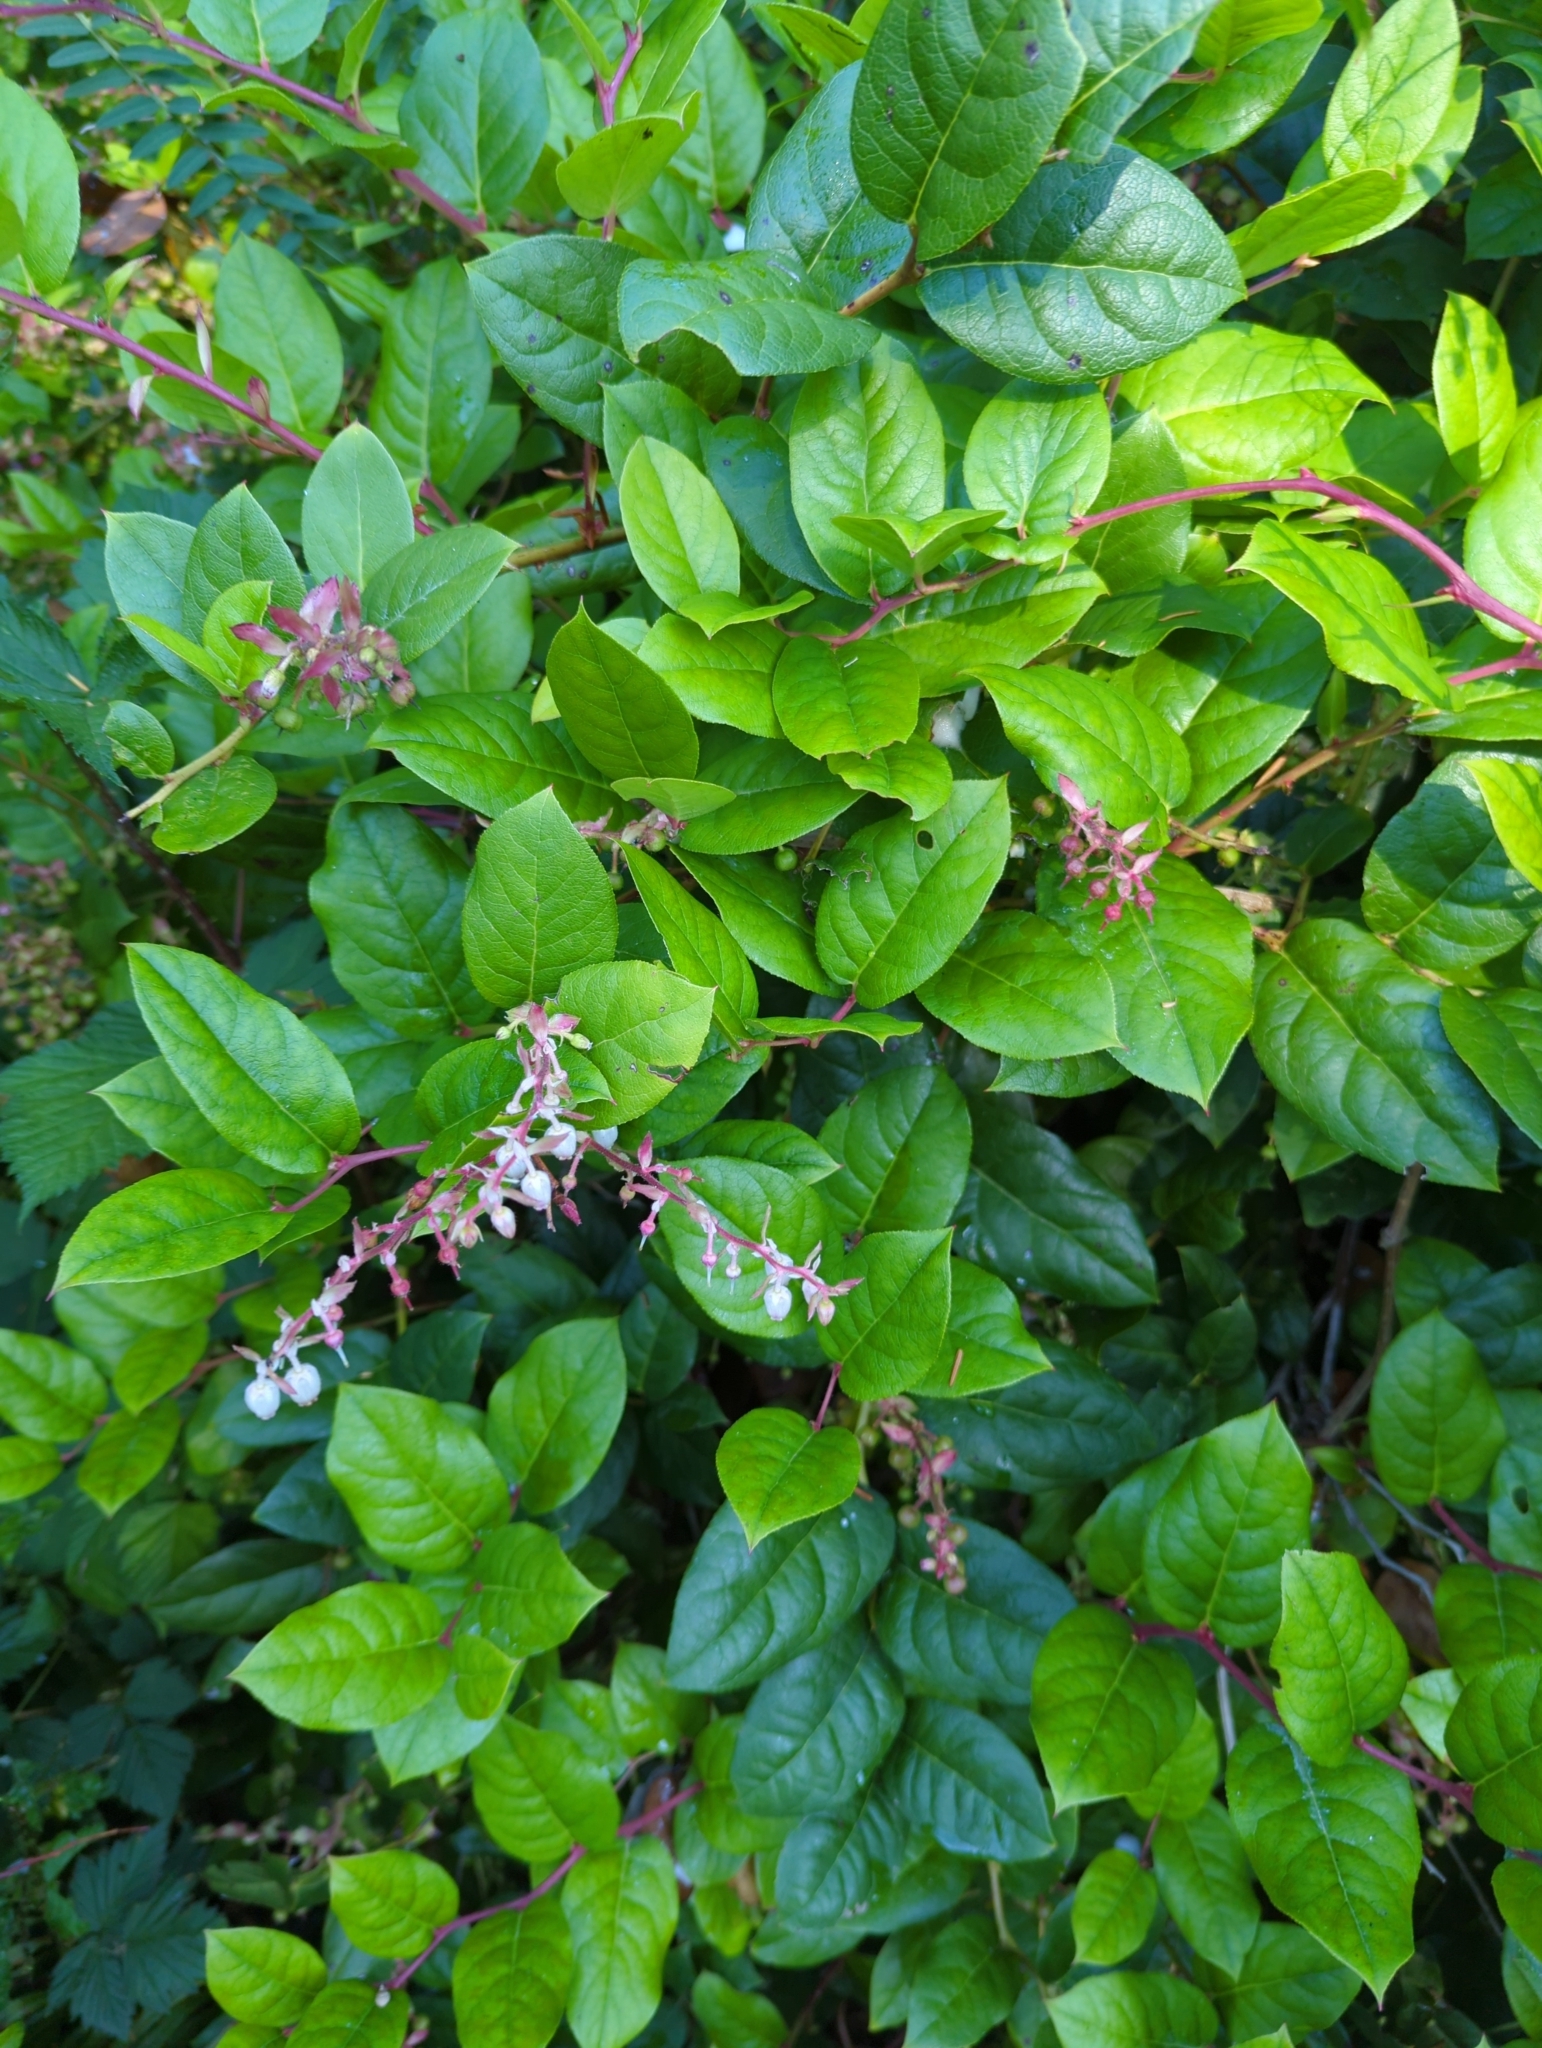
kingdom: Plantae
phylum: Tracheophyta
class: Magnoliopsida
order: Ericales
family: Ericaceae
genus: Gaultheria
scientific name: Gaultheria shallon
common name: Shallon
